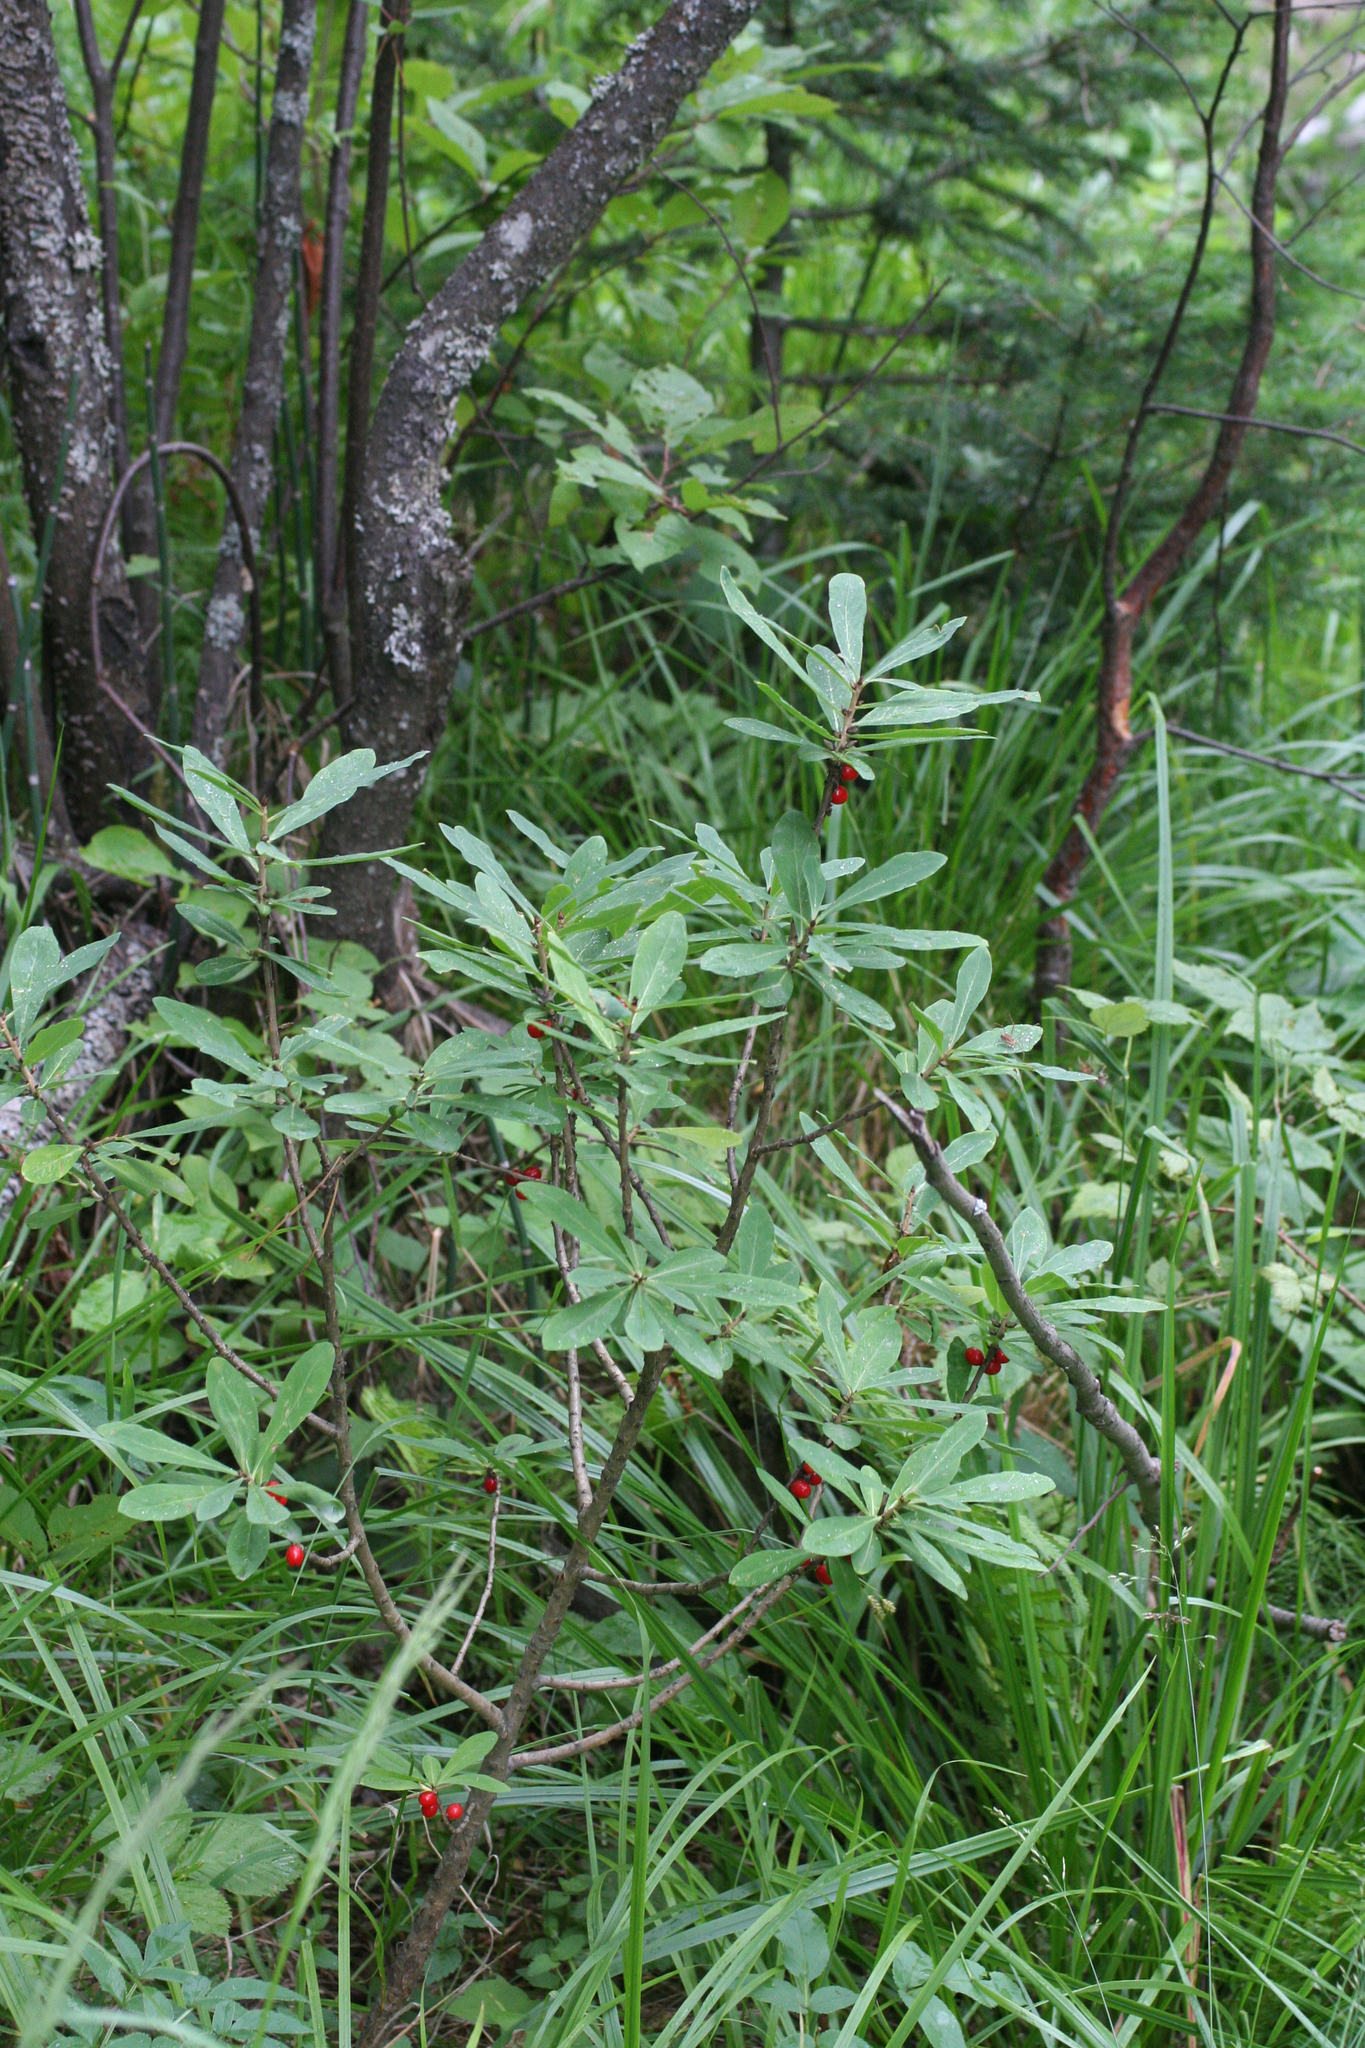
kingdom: Plantae
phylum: Tracheophyta
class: Magnoliopsida
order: Malvales
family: Thymelaeaceae
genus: Daphne
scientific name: Daphne mezereum
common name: Mezereon
